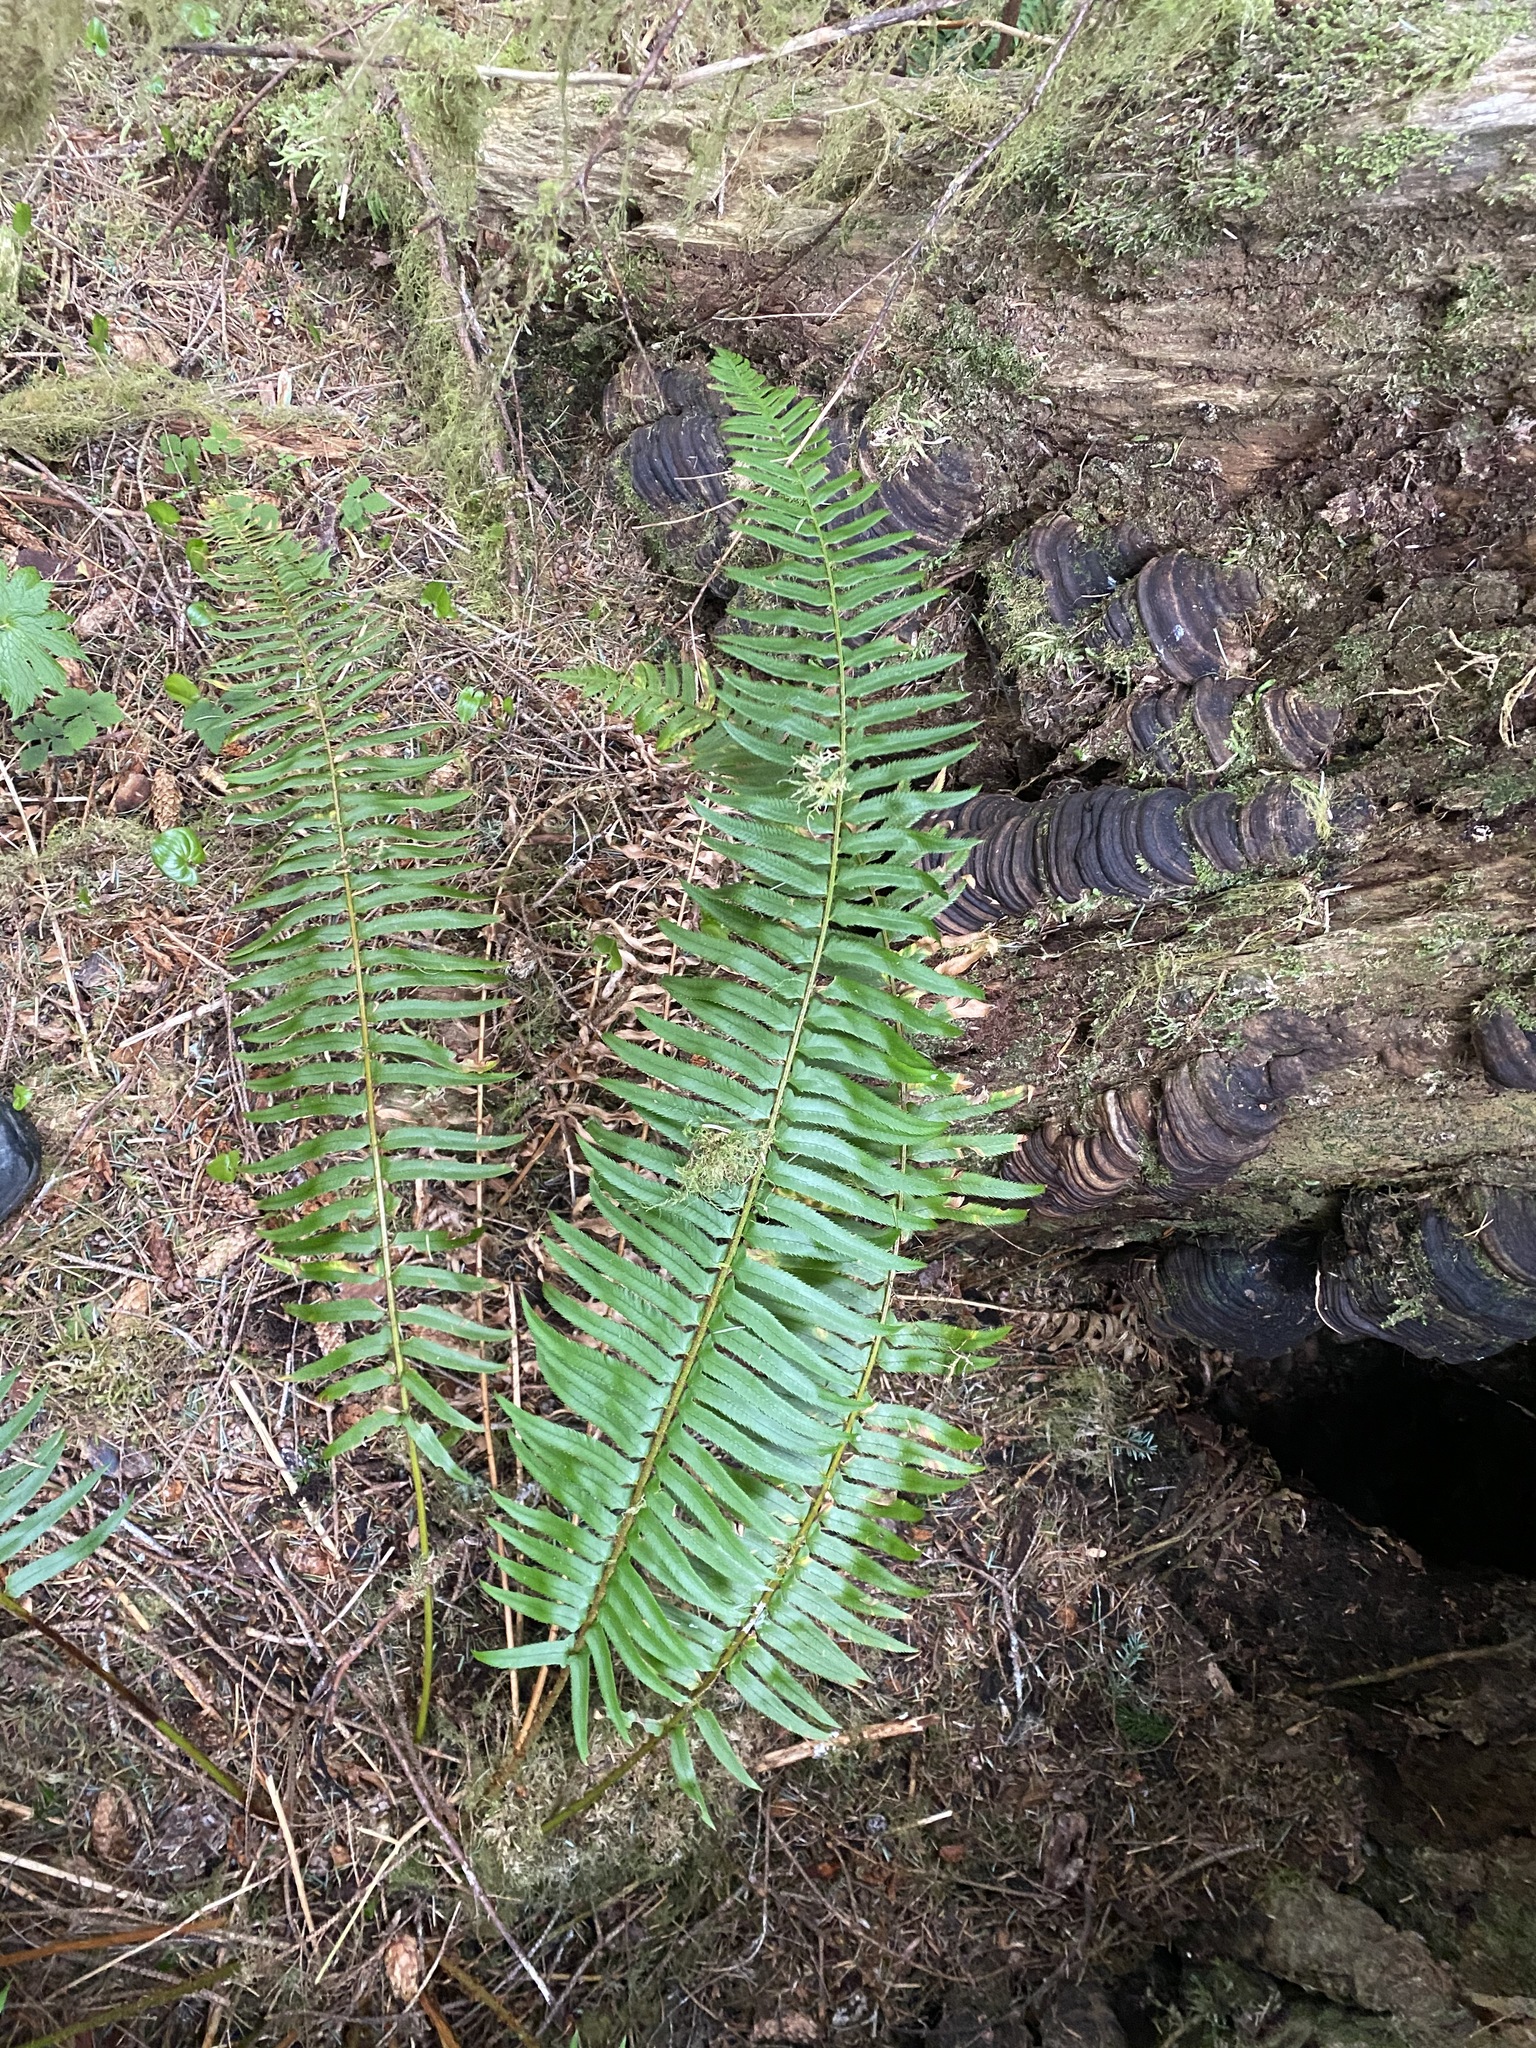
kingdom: Plantae
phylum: Tracheophyta
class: Polypodiopsida
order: Polypodiales
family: Dryopteridaceae
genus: Polystichum
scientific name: Polystichum munitum
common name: Western sword-fern
